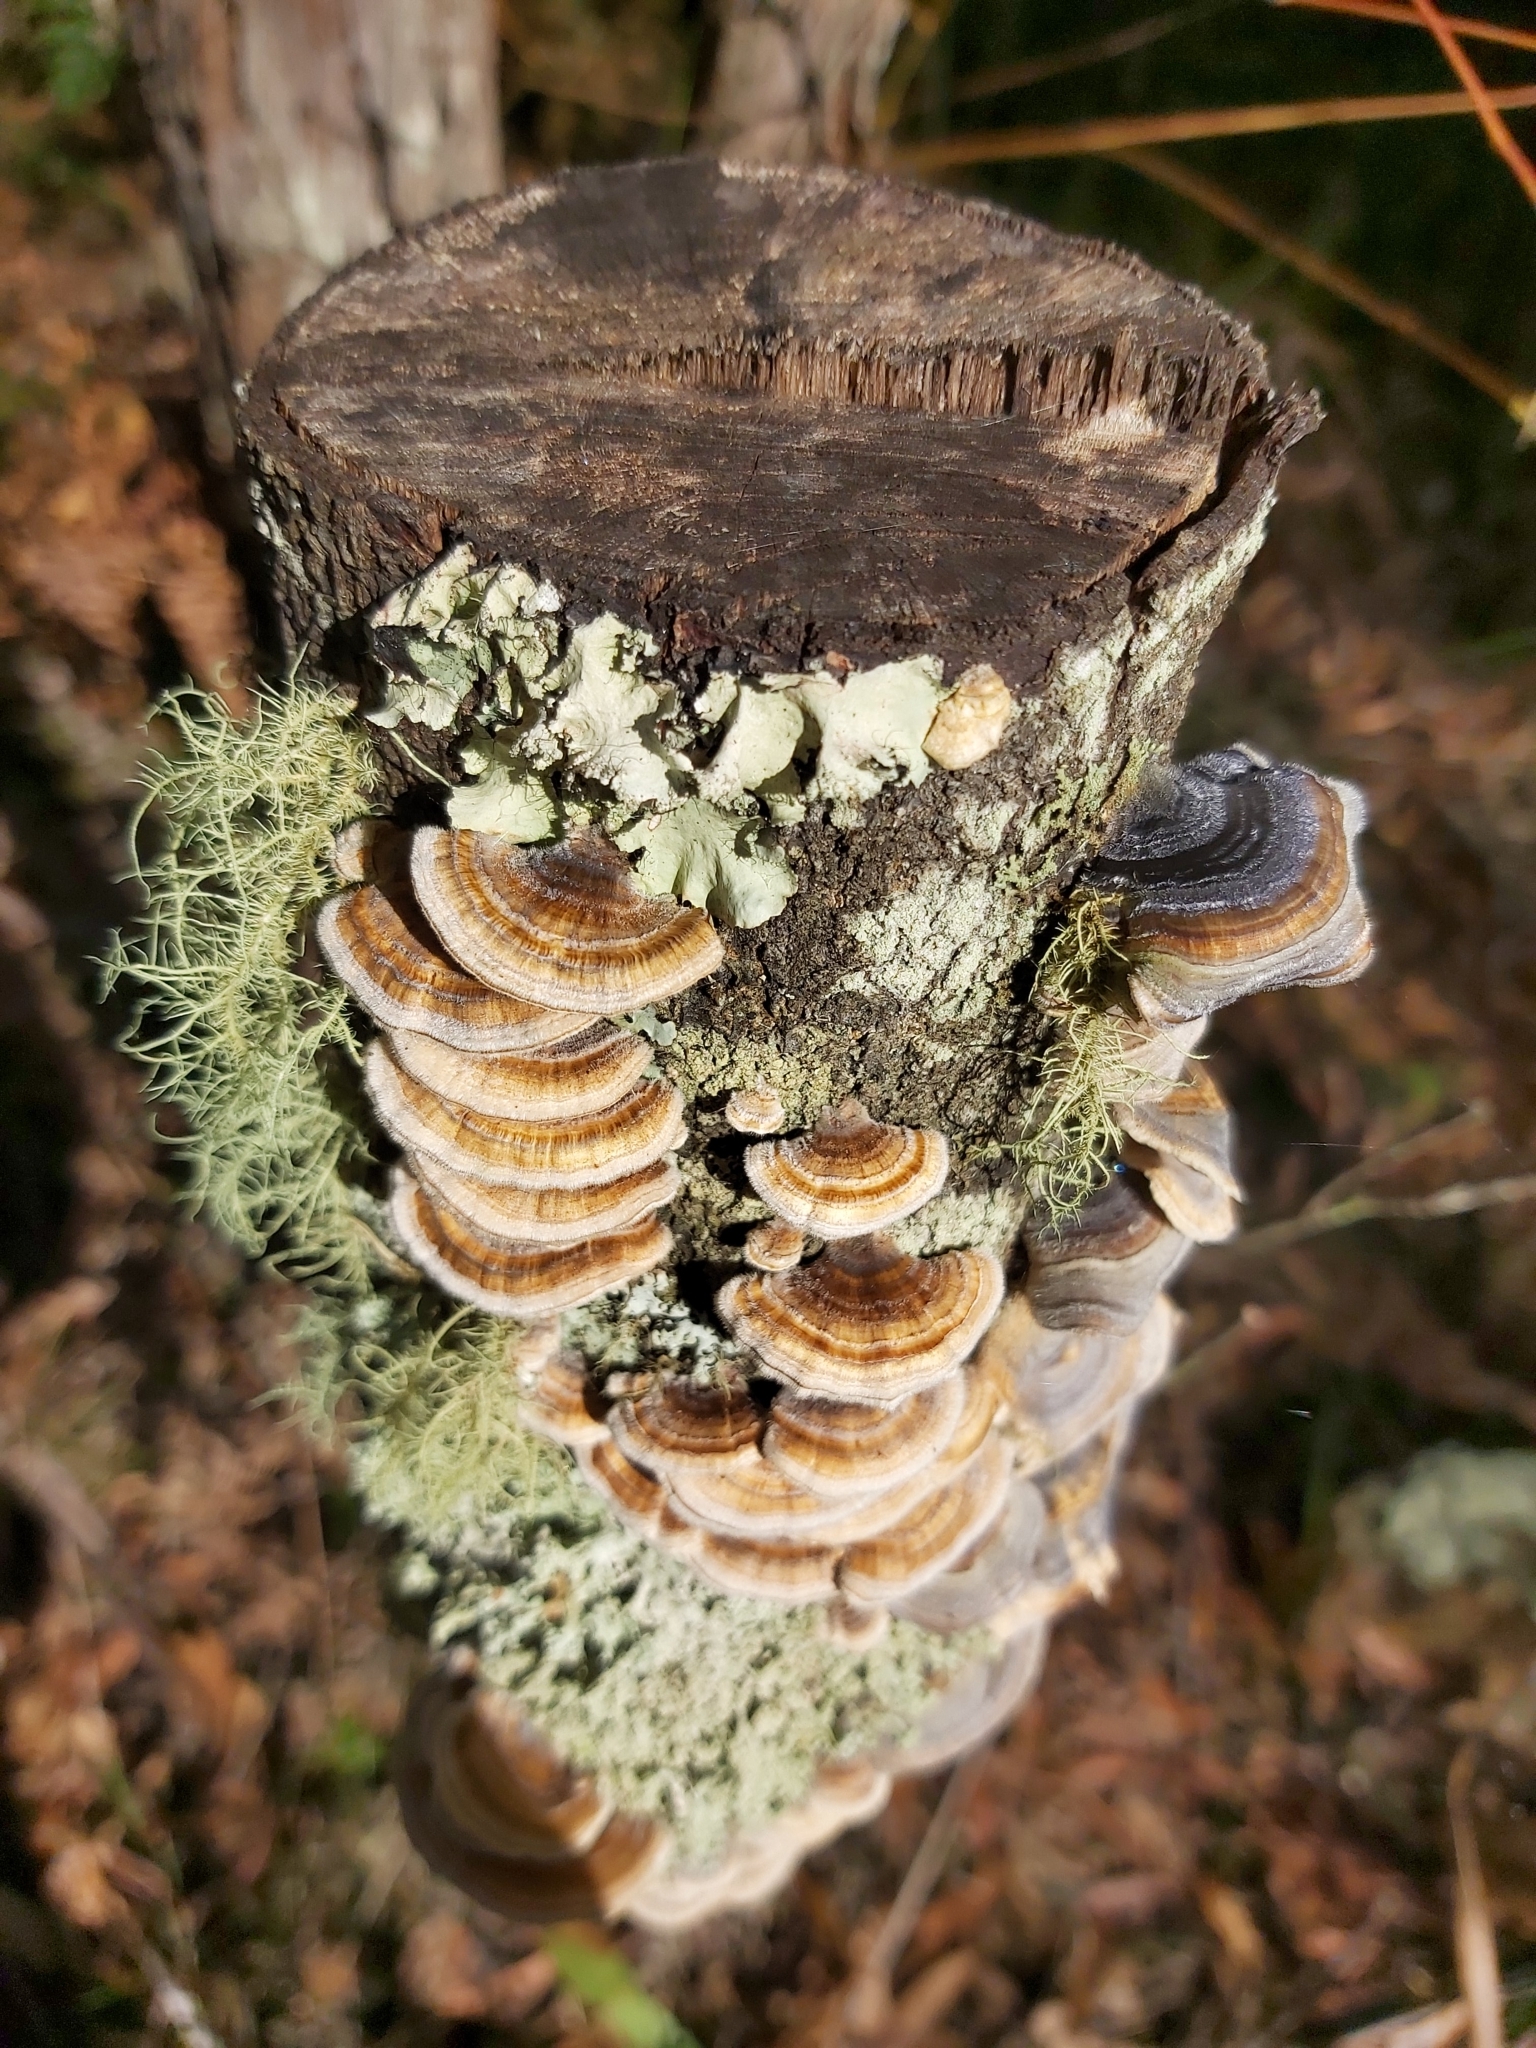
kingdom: Fungi
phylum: Basidiomycota
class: Agaricomycetes
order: Polyporales
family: Polyporaceae
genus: Trametes
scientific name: Trametes versicolor
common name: Turkeytail
